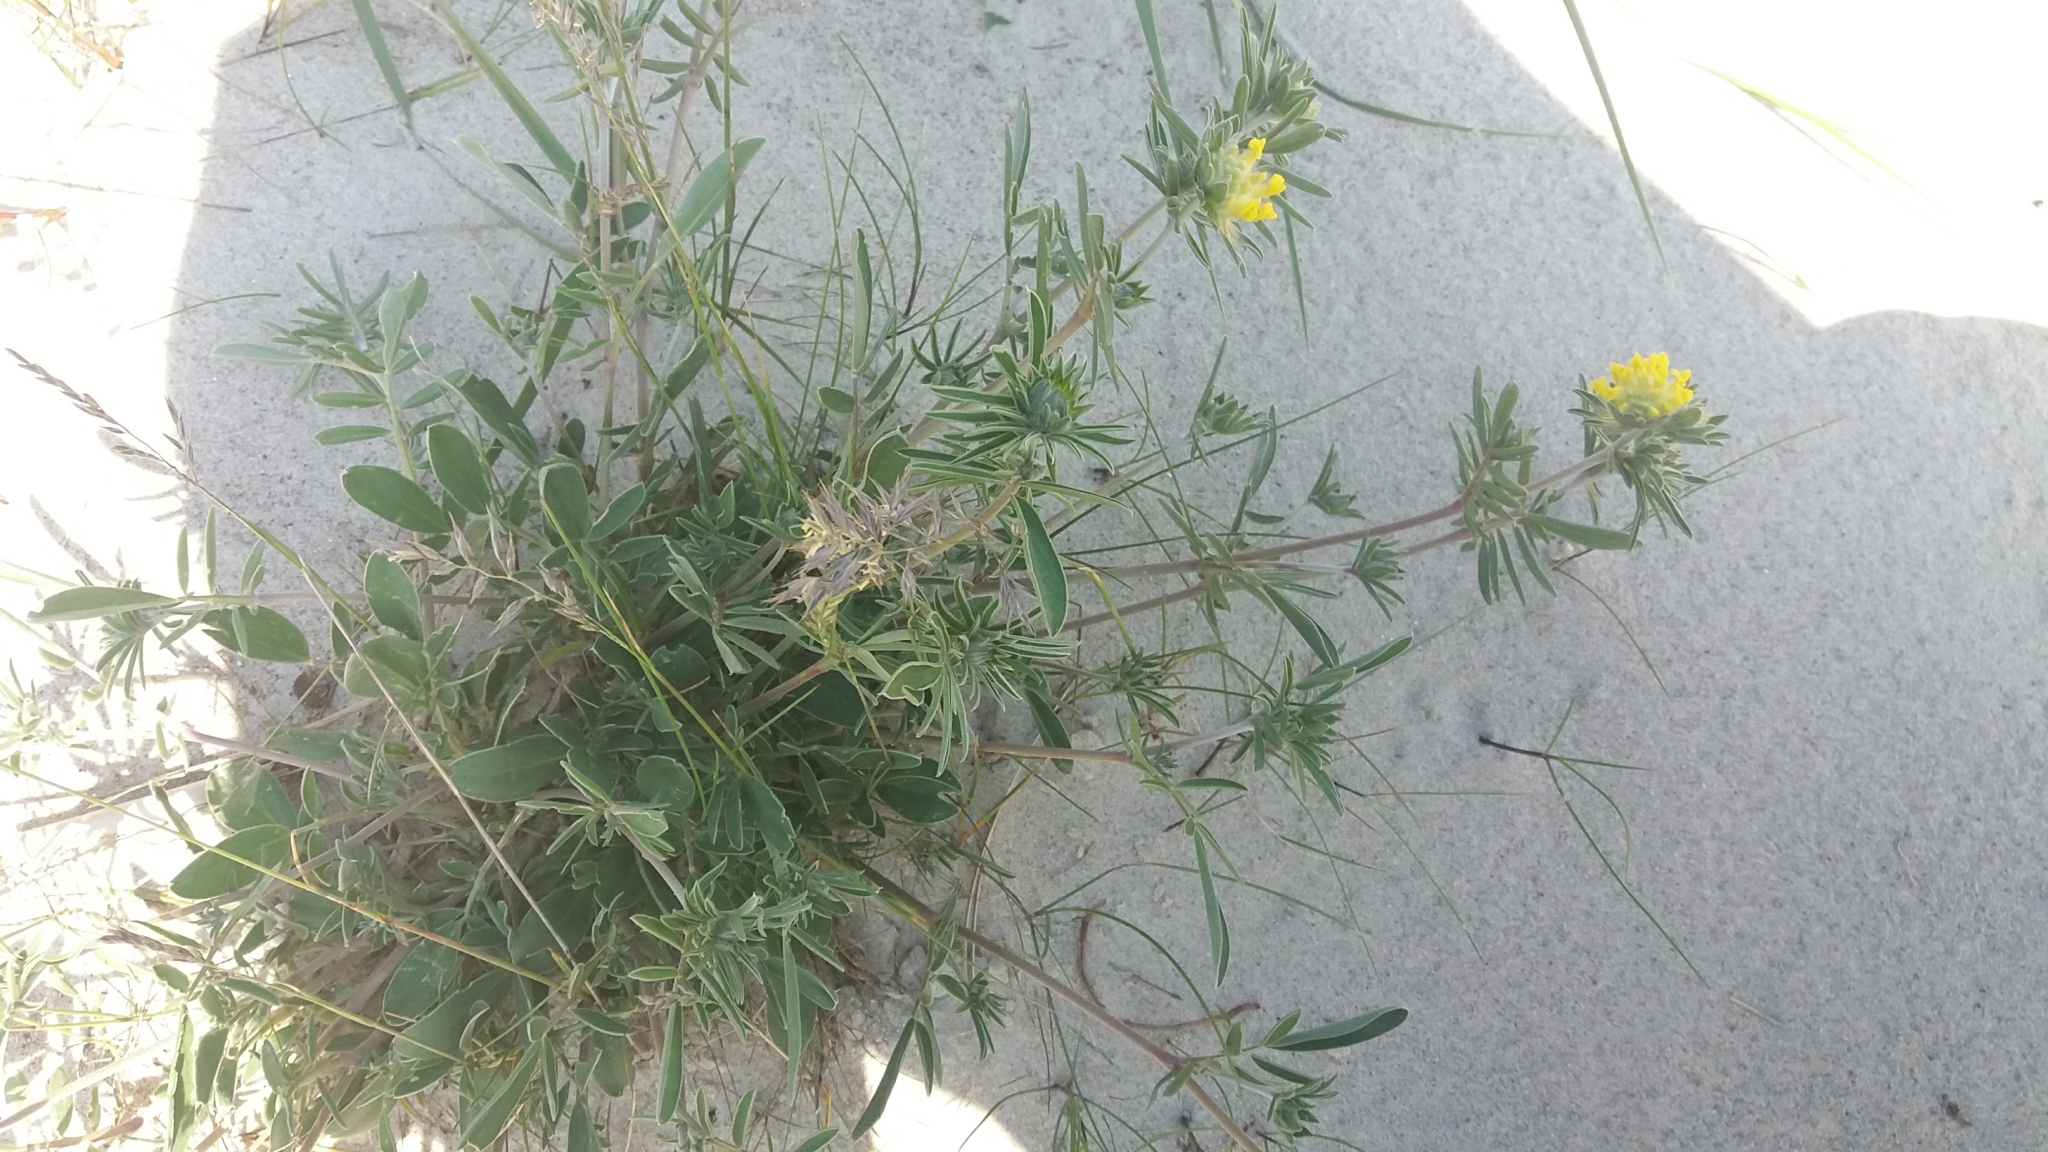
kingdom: Plantae
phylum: Tracheophyta
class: Magnoliopsida
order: Fabales
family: Fabaceae
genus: Anthyllis
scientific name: Anthyllis vulneraria
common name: Kidney vetch
